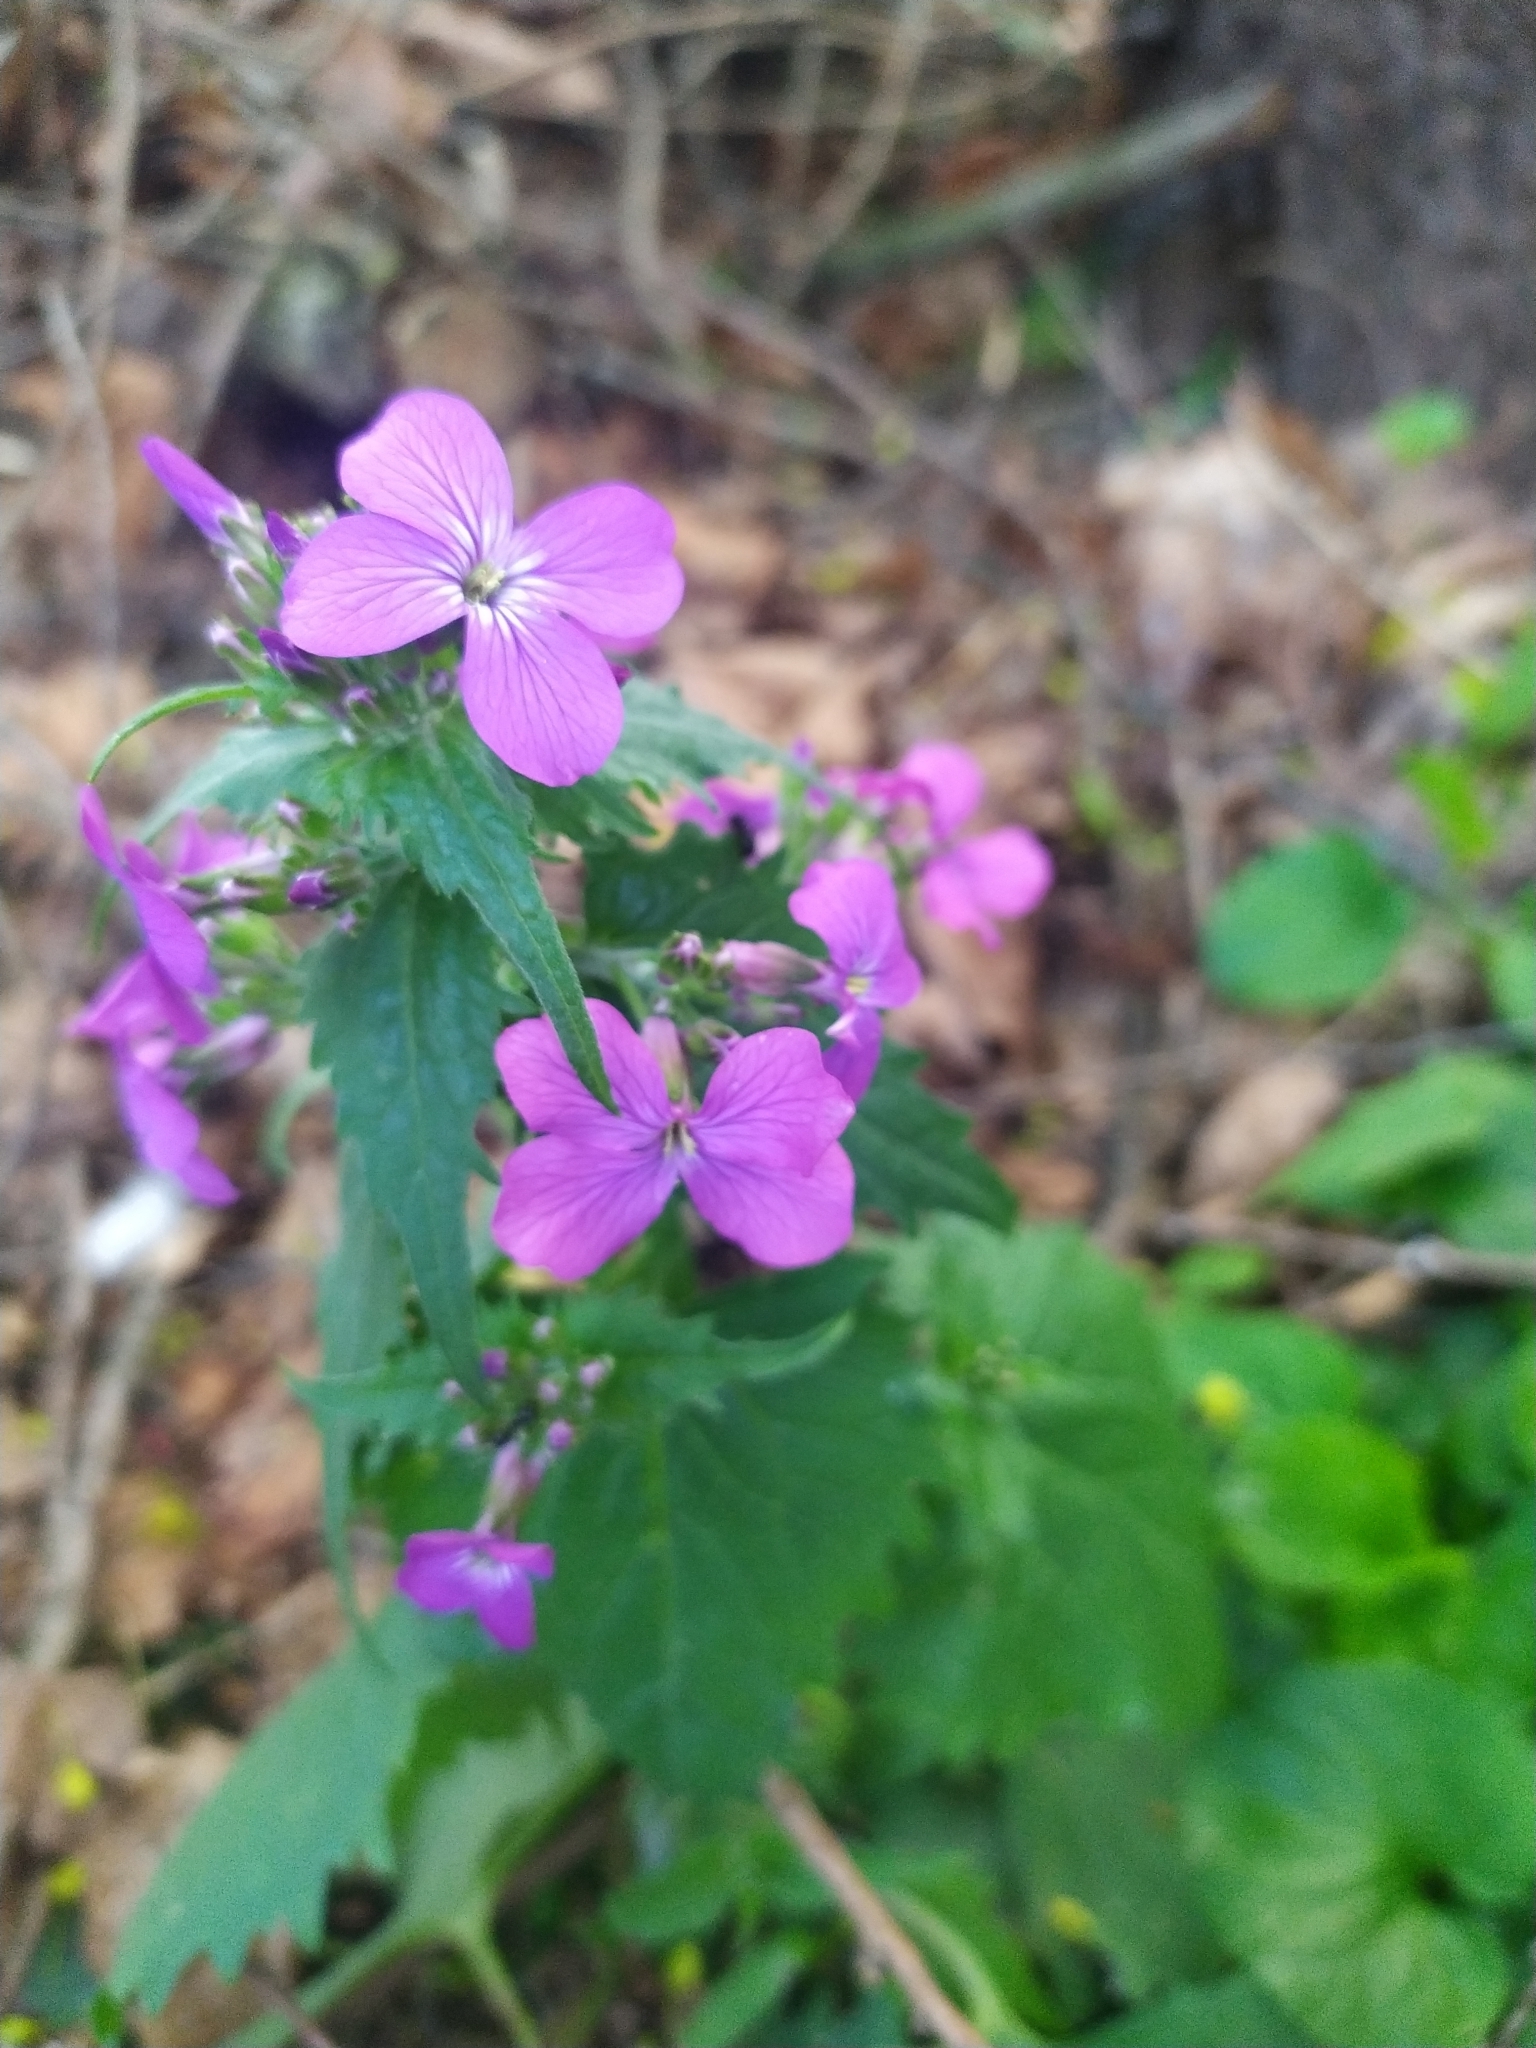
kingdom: Plantae
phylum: Tracheophyta
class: Magnoliopsida
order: Brassicales
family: Brassicaceae
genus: Lunaria
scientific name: Lunaria annua
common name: Honesty
